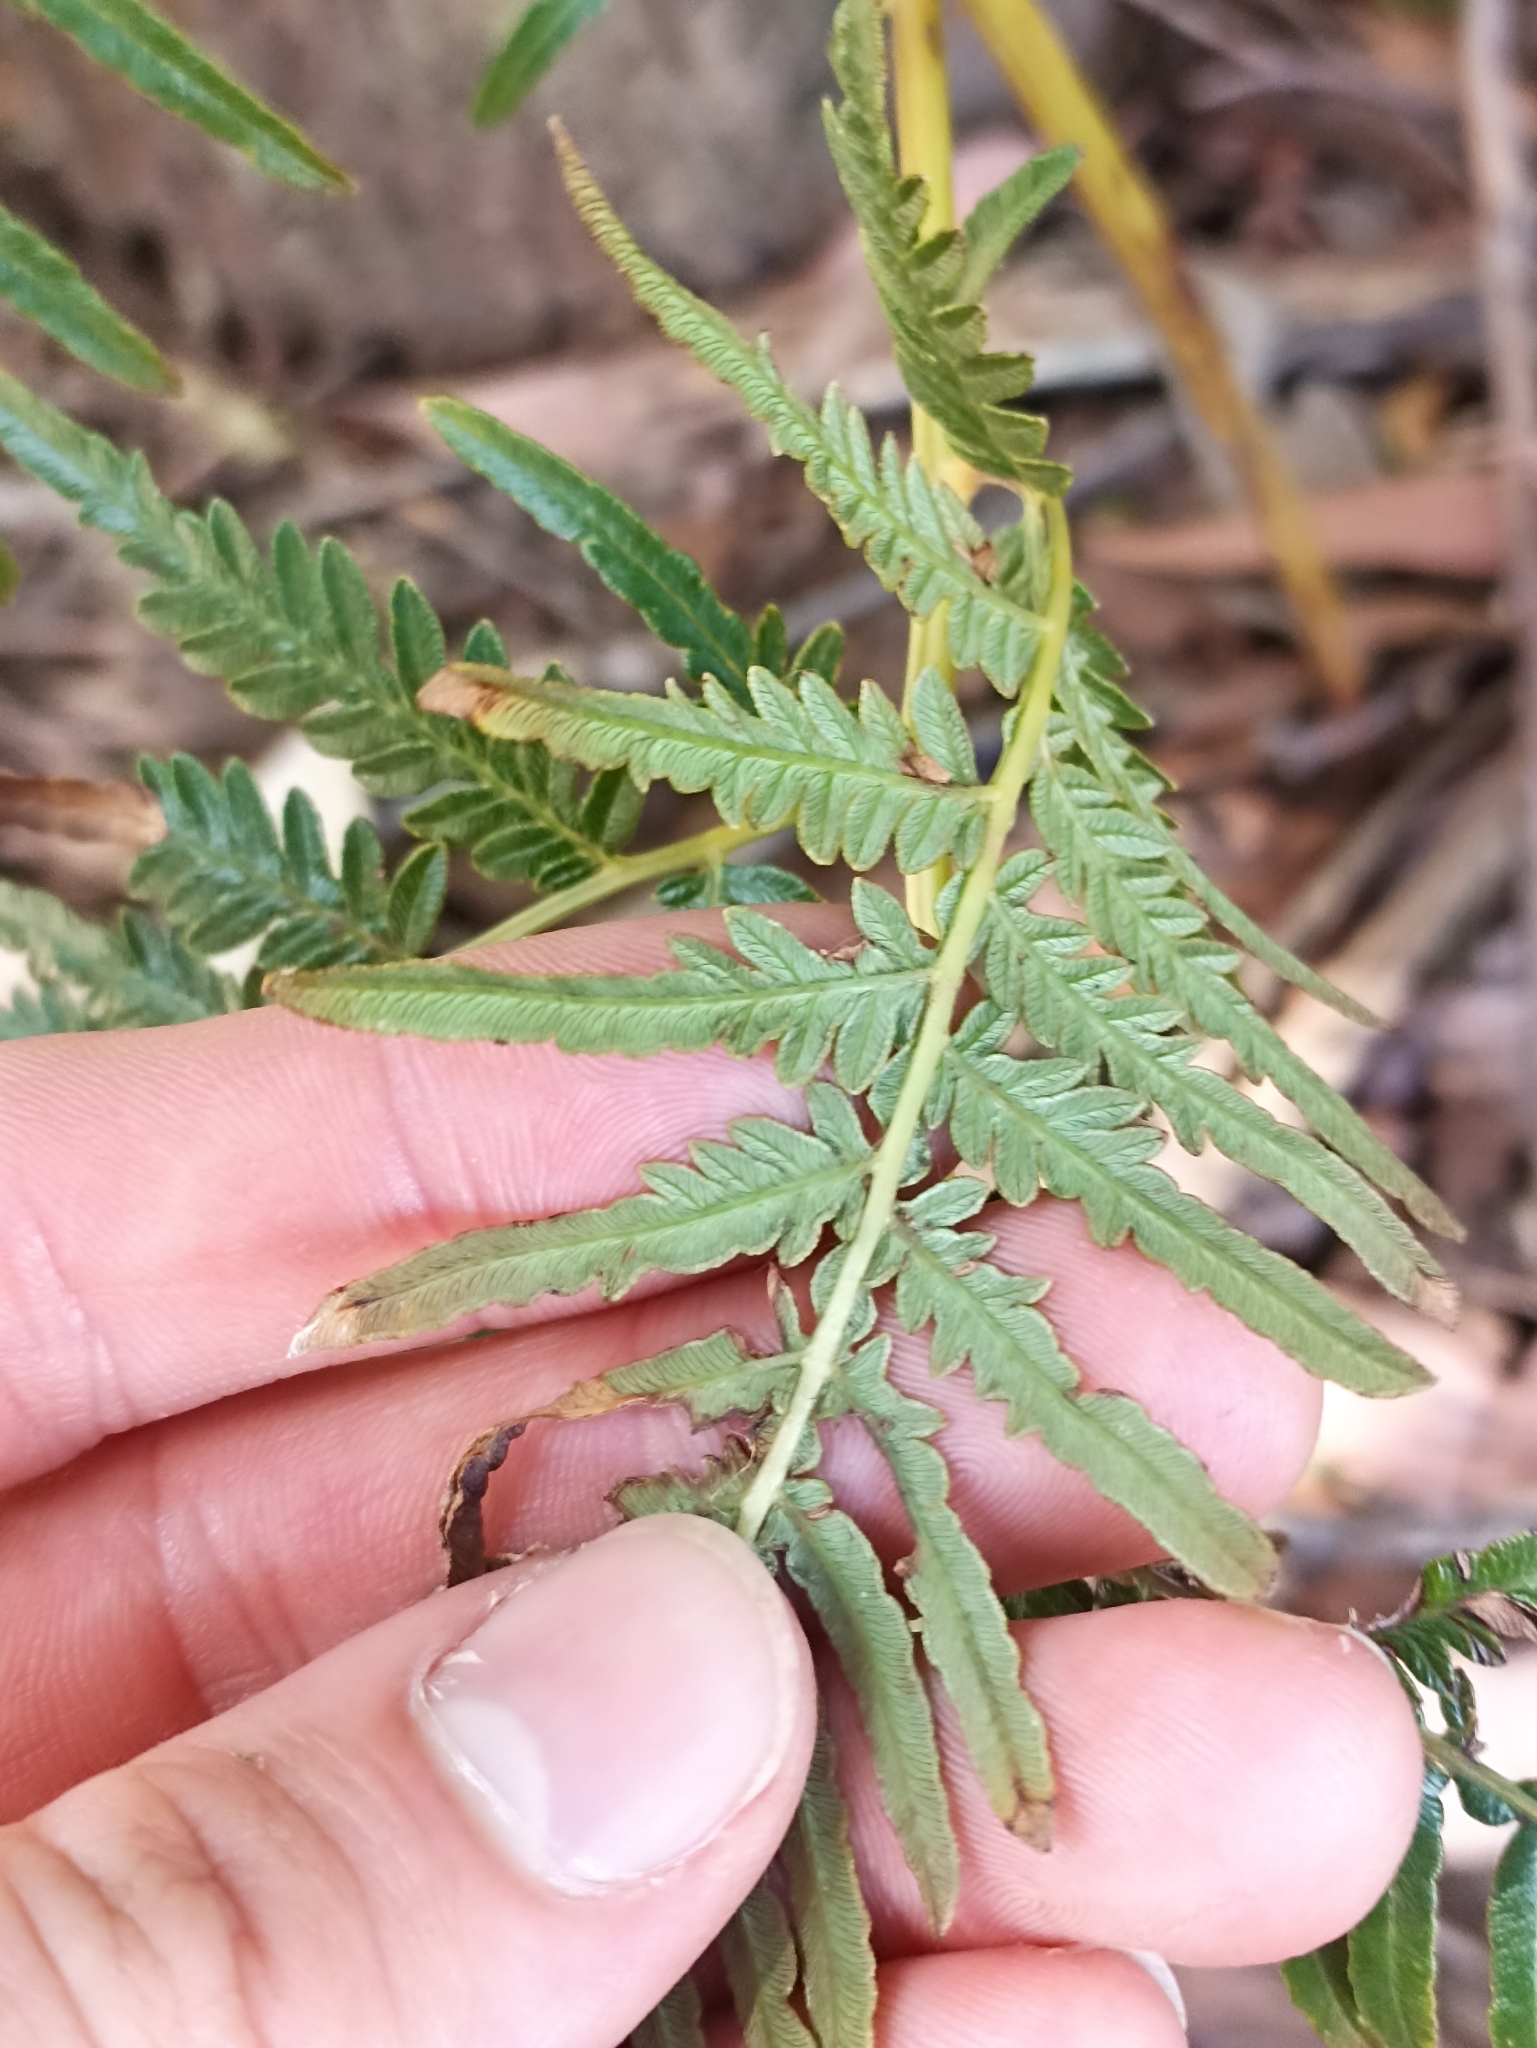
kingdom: Plantae
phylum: Tracheophyta
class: Polypodiopsida
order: Polypodiales
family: Dennstaedtiaceae
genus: Pteridium
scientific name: Pteridium esculentum
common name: Bracken fern
